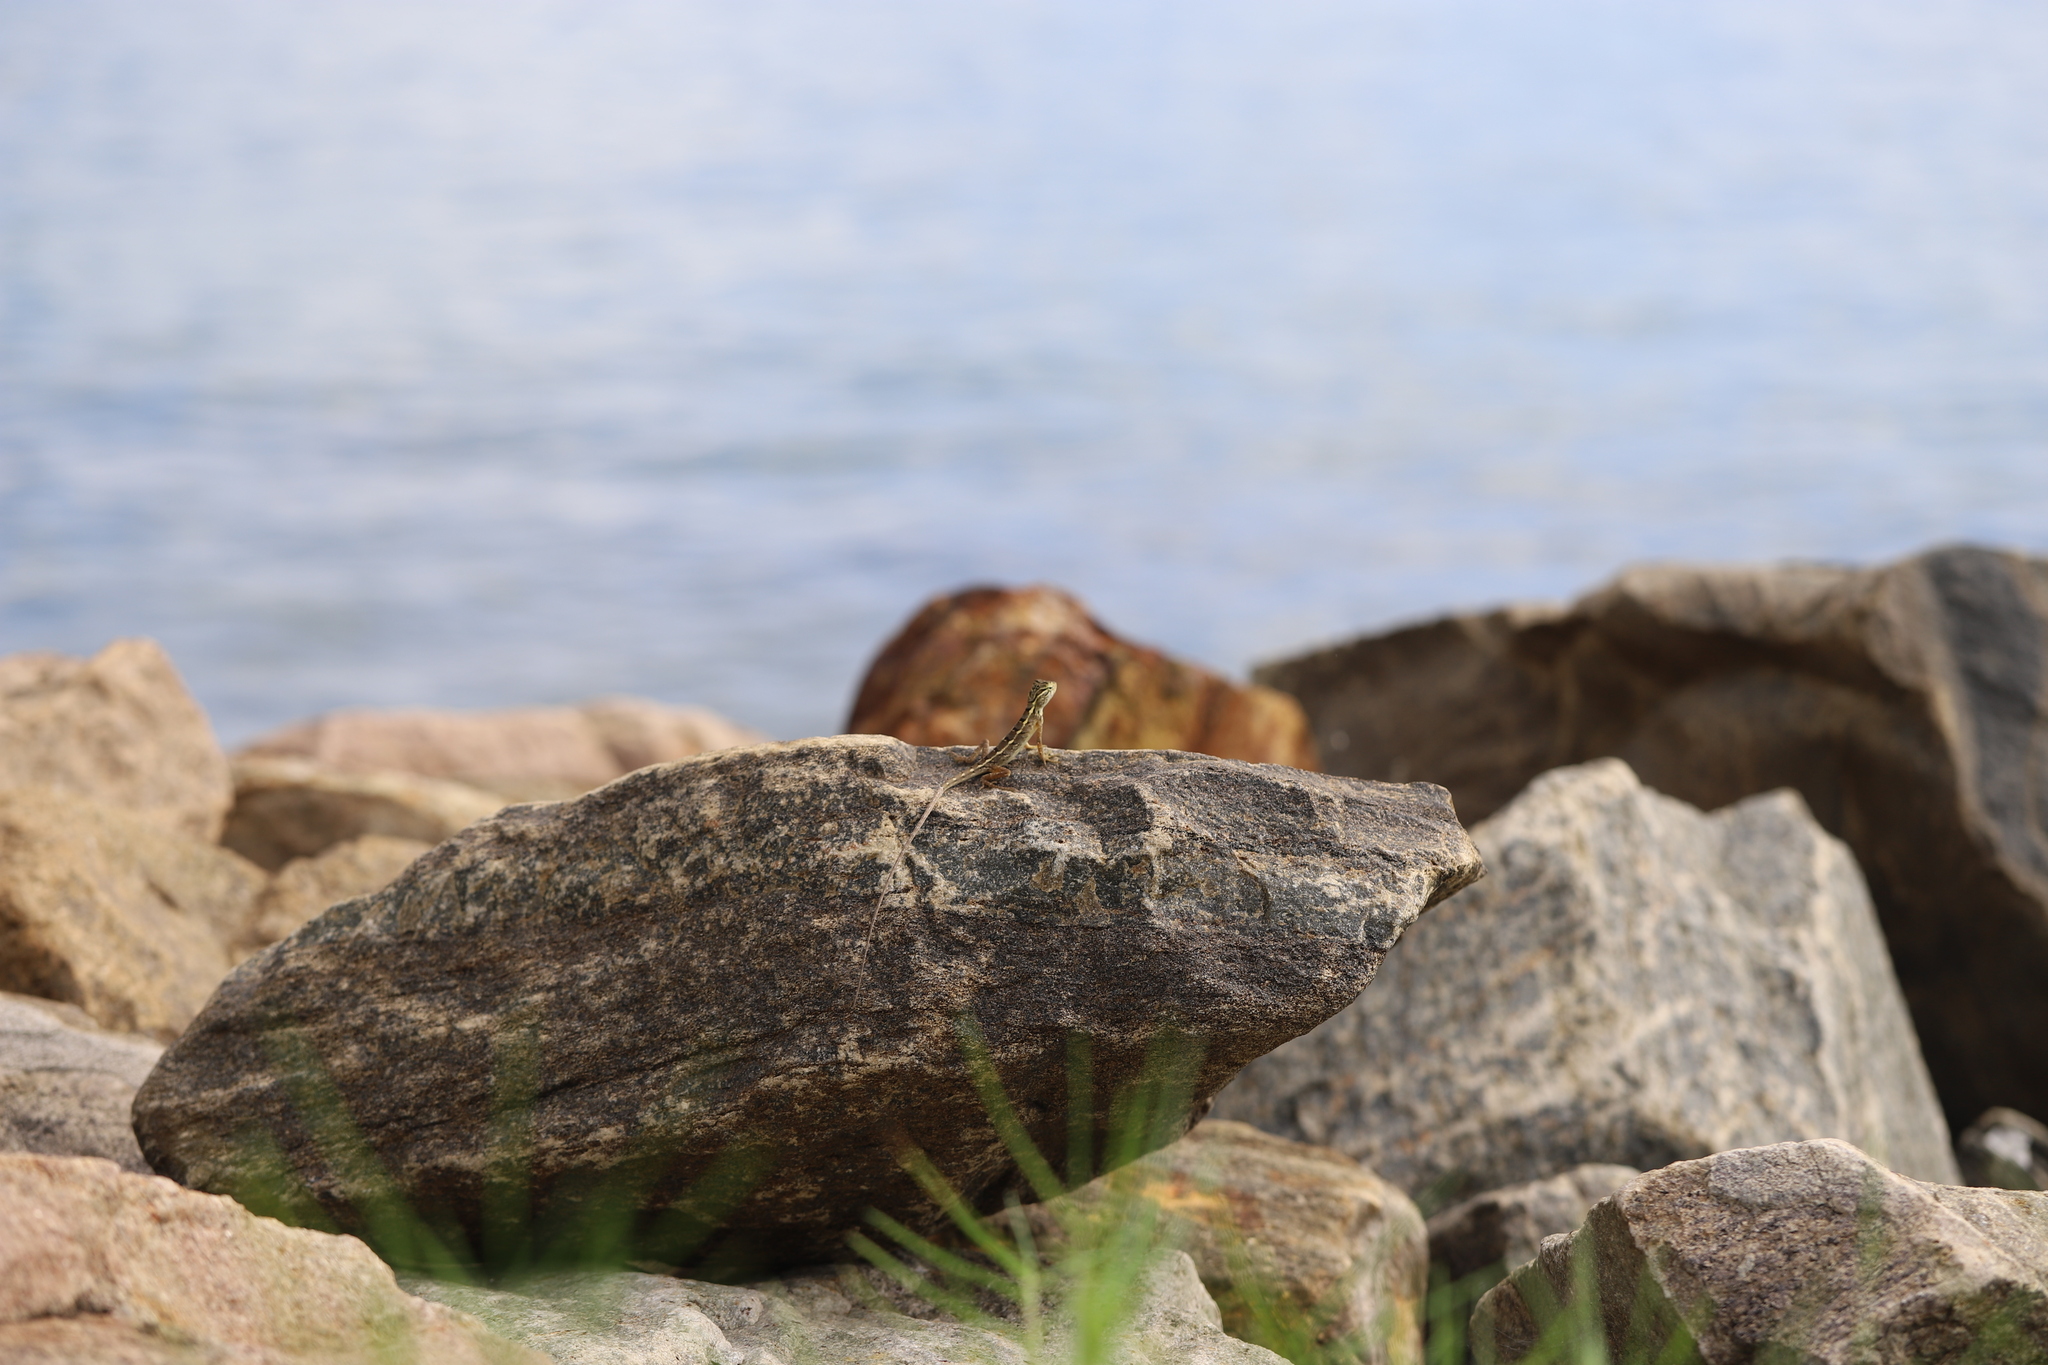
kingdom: Animalia
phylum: Chordata
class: Squamata
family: Agamidae
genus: Calotes
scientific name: Calotes versicolor
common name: Oriental garden lizard
